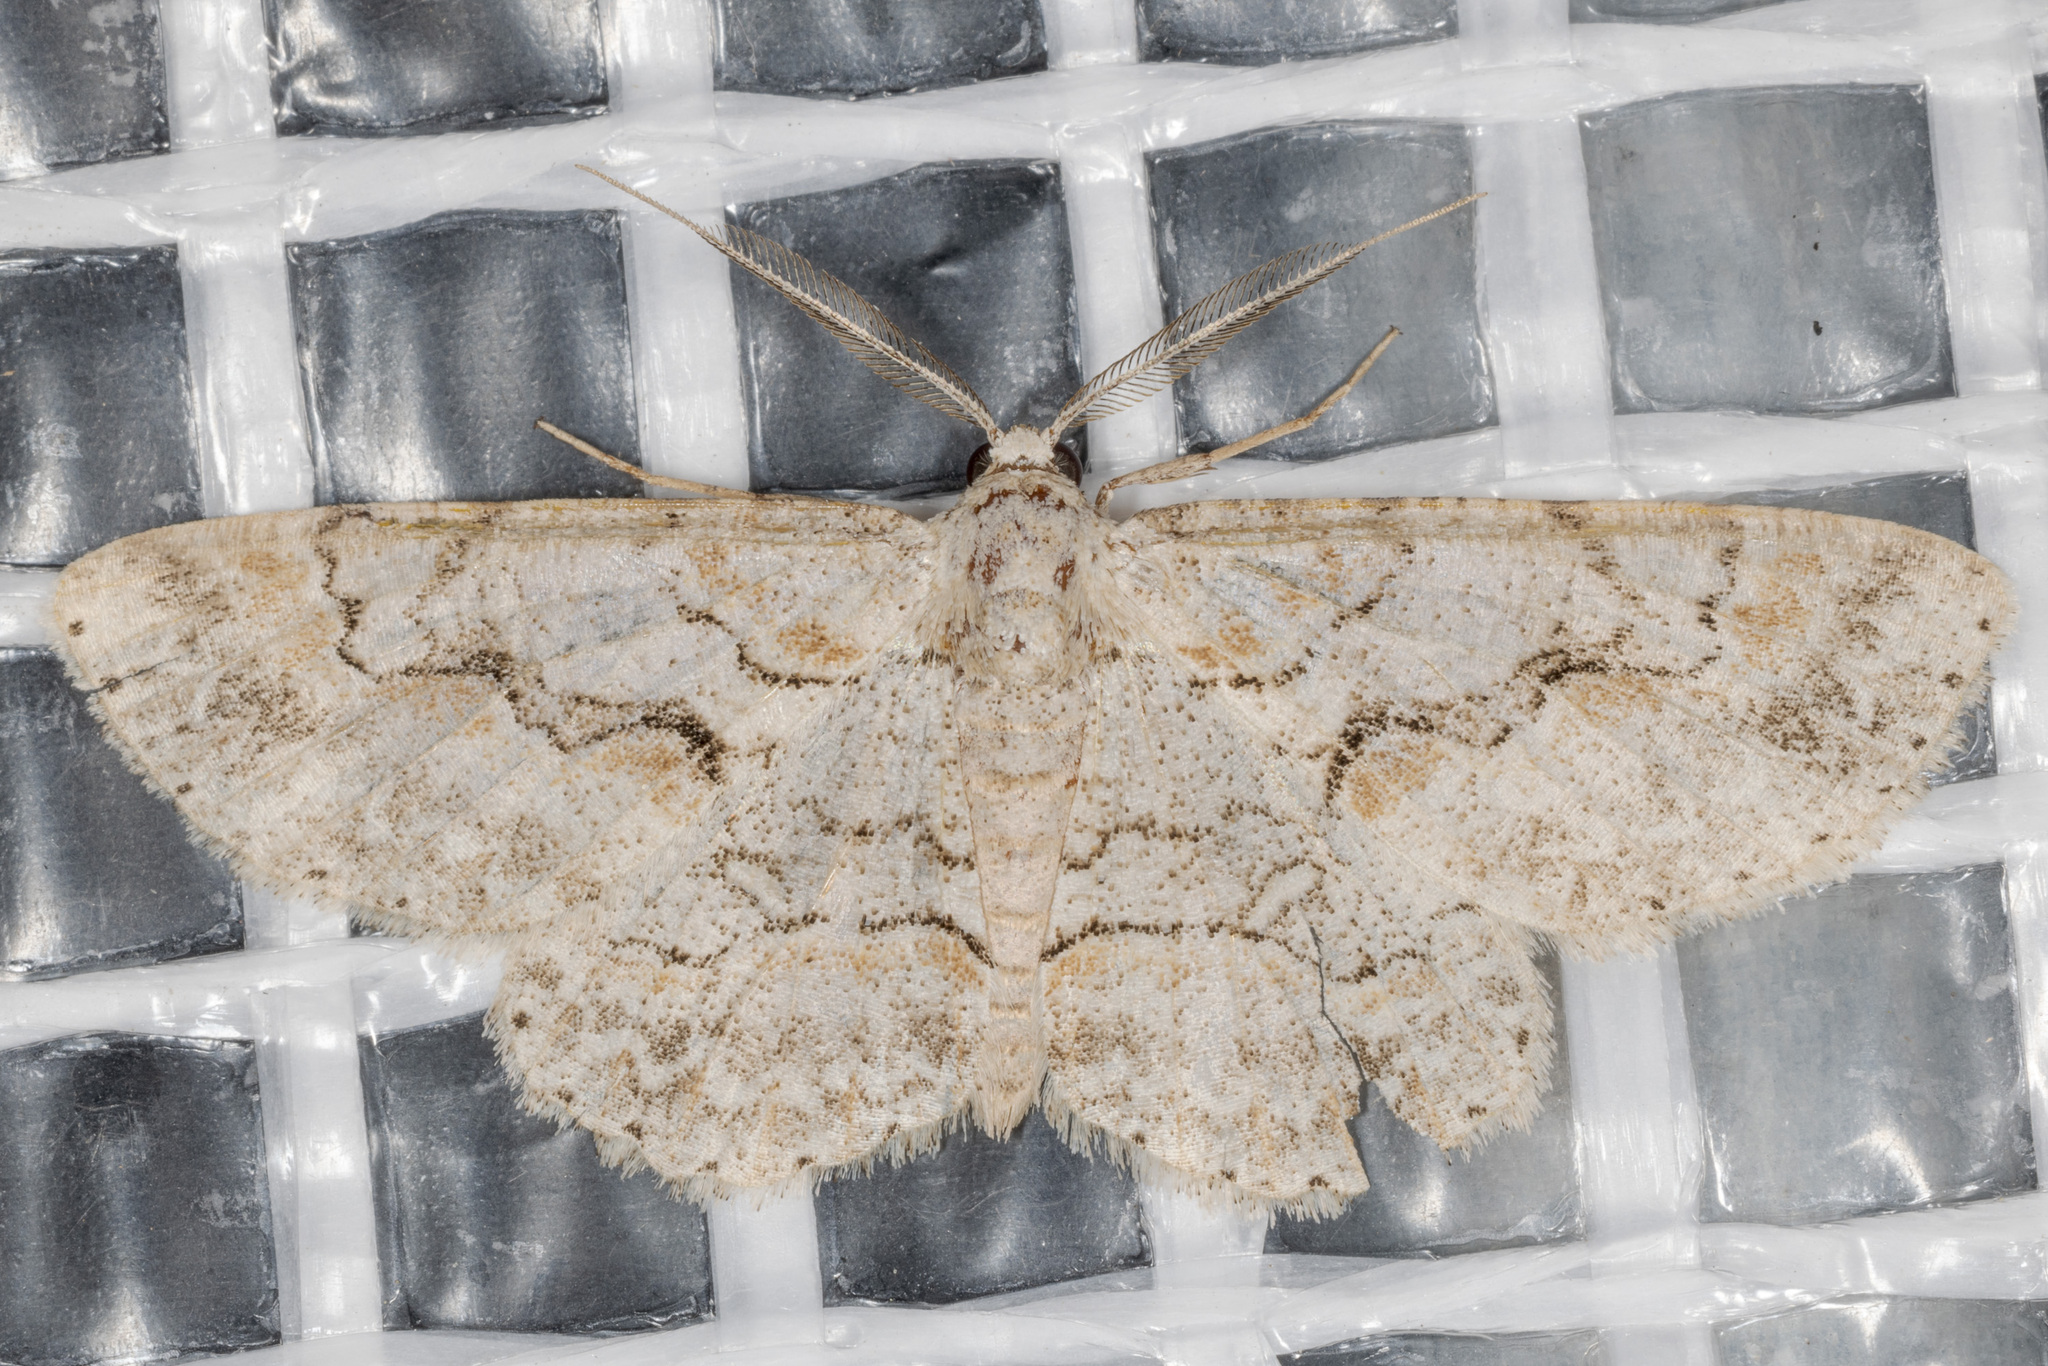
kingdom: Animalia
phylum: Arthropoda
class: Insecta
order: Lepidoptera
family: Geometridae
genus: Iridopsis
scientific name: Iridopsis defectaria
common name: Brown-shaded gray
